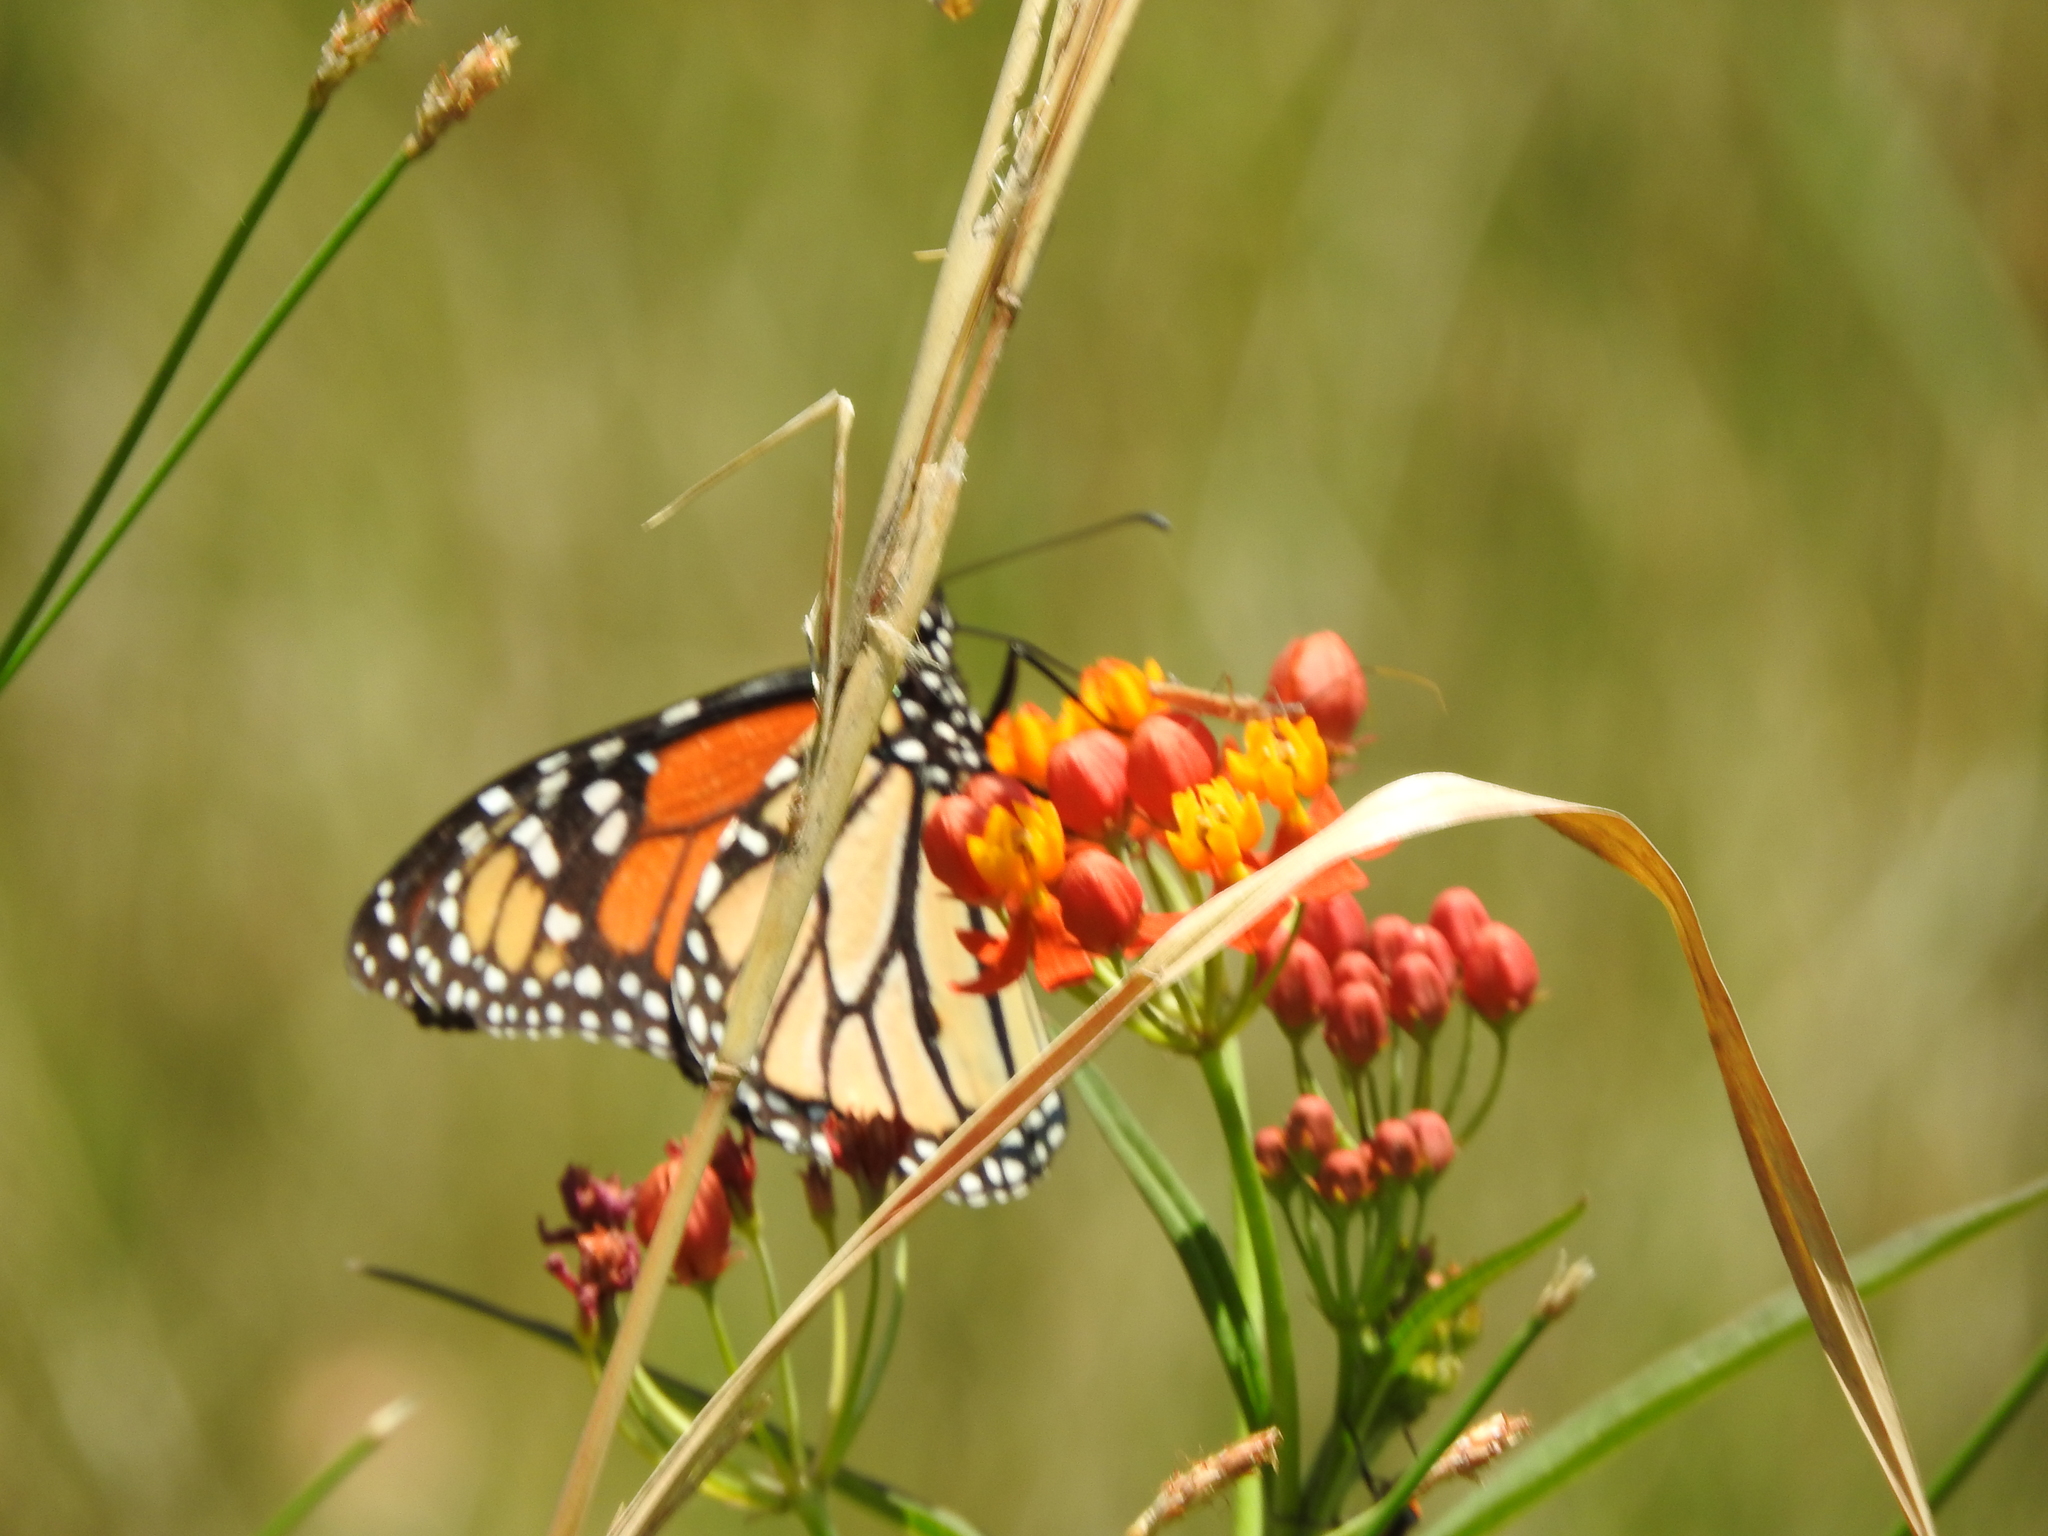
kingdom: Animalia
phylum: Arthropoda
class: Insecta
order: Lepidoptera
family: Nymphalidae
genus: Danaus
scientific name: Danaus plexippus
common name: Monarch
